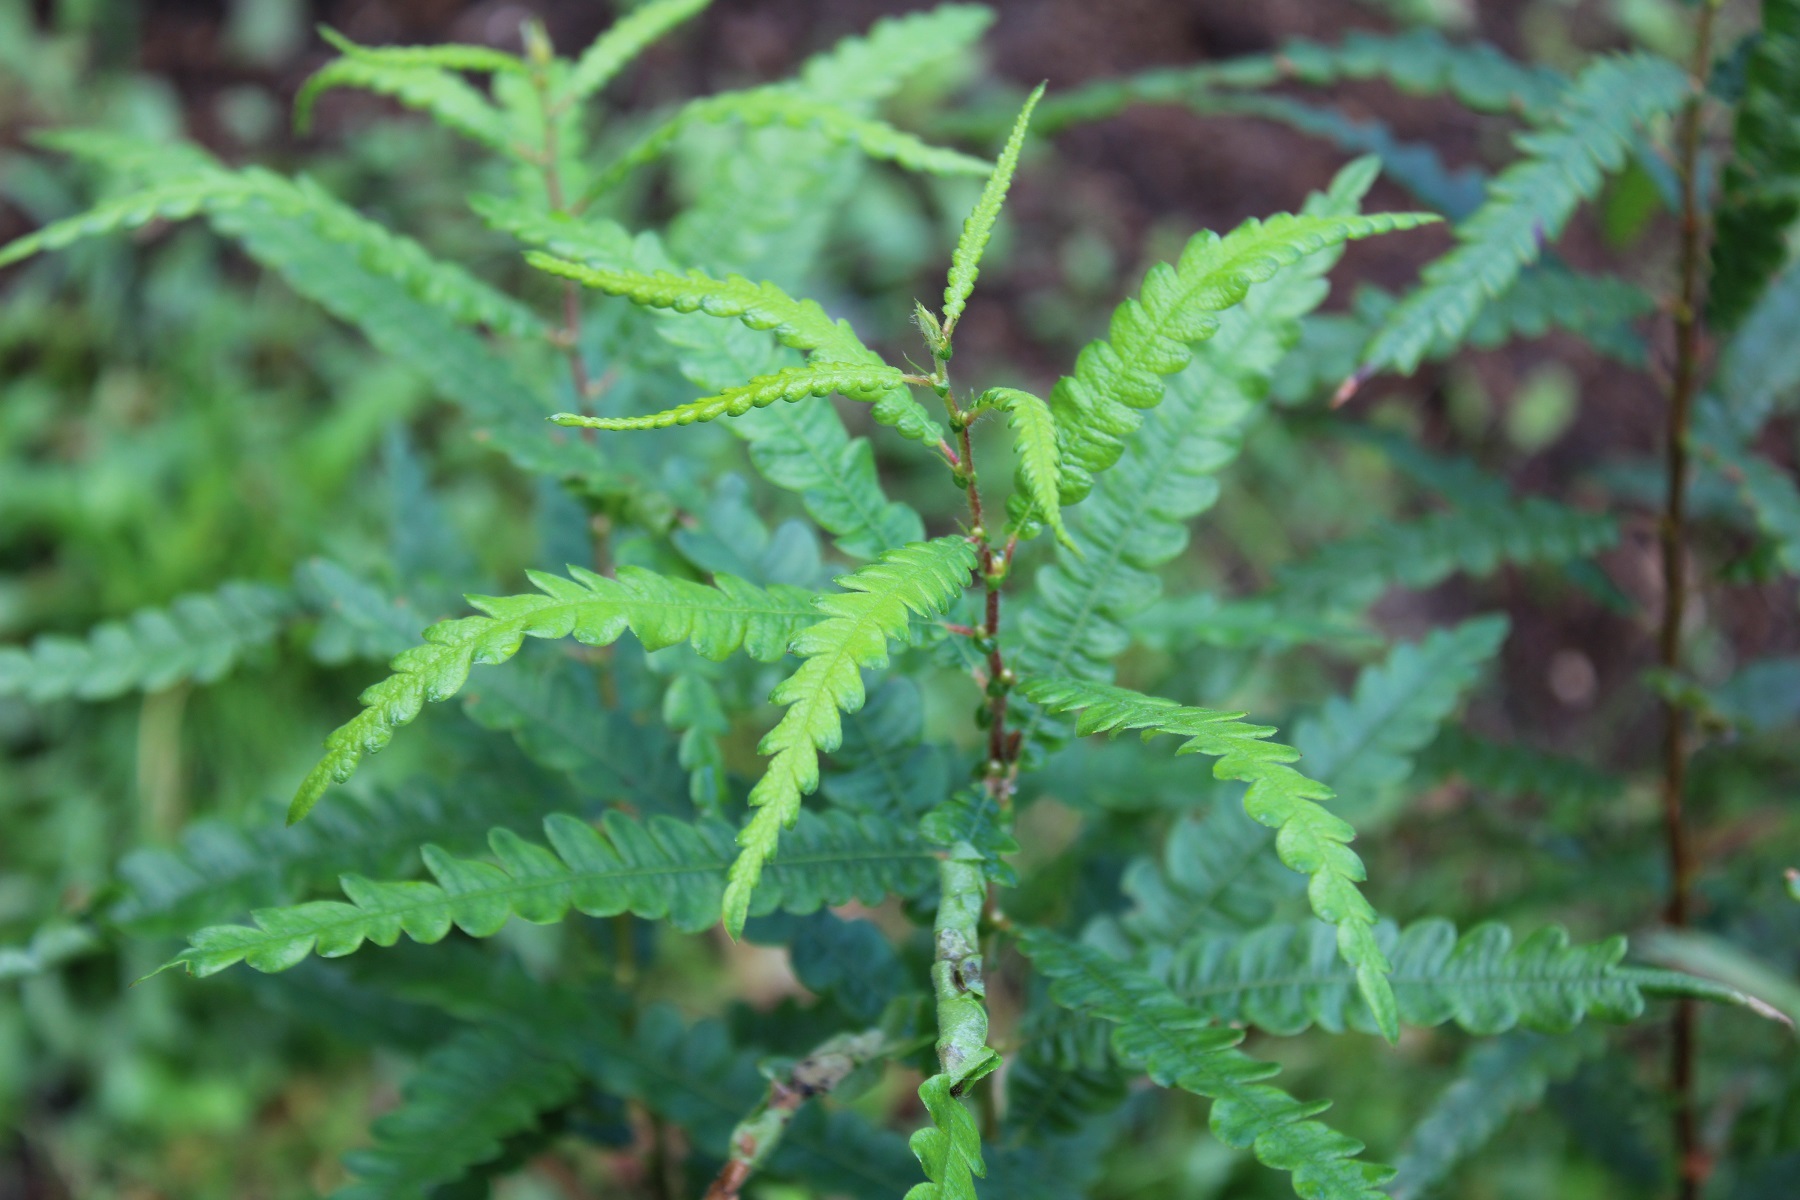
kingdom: Plantae
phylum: Tracheophyta
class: Magnoliopsida
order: Fagales
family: Myricaceae
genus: Comptonia
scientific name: Comptonia peregrina
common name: Sweet-fern
